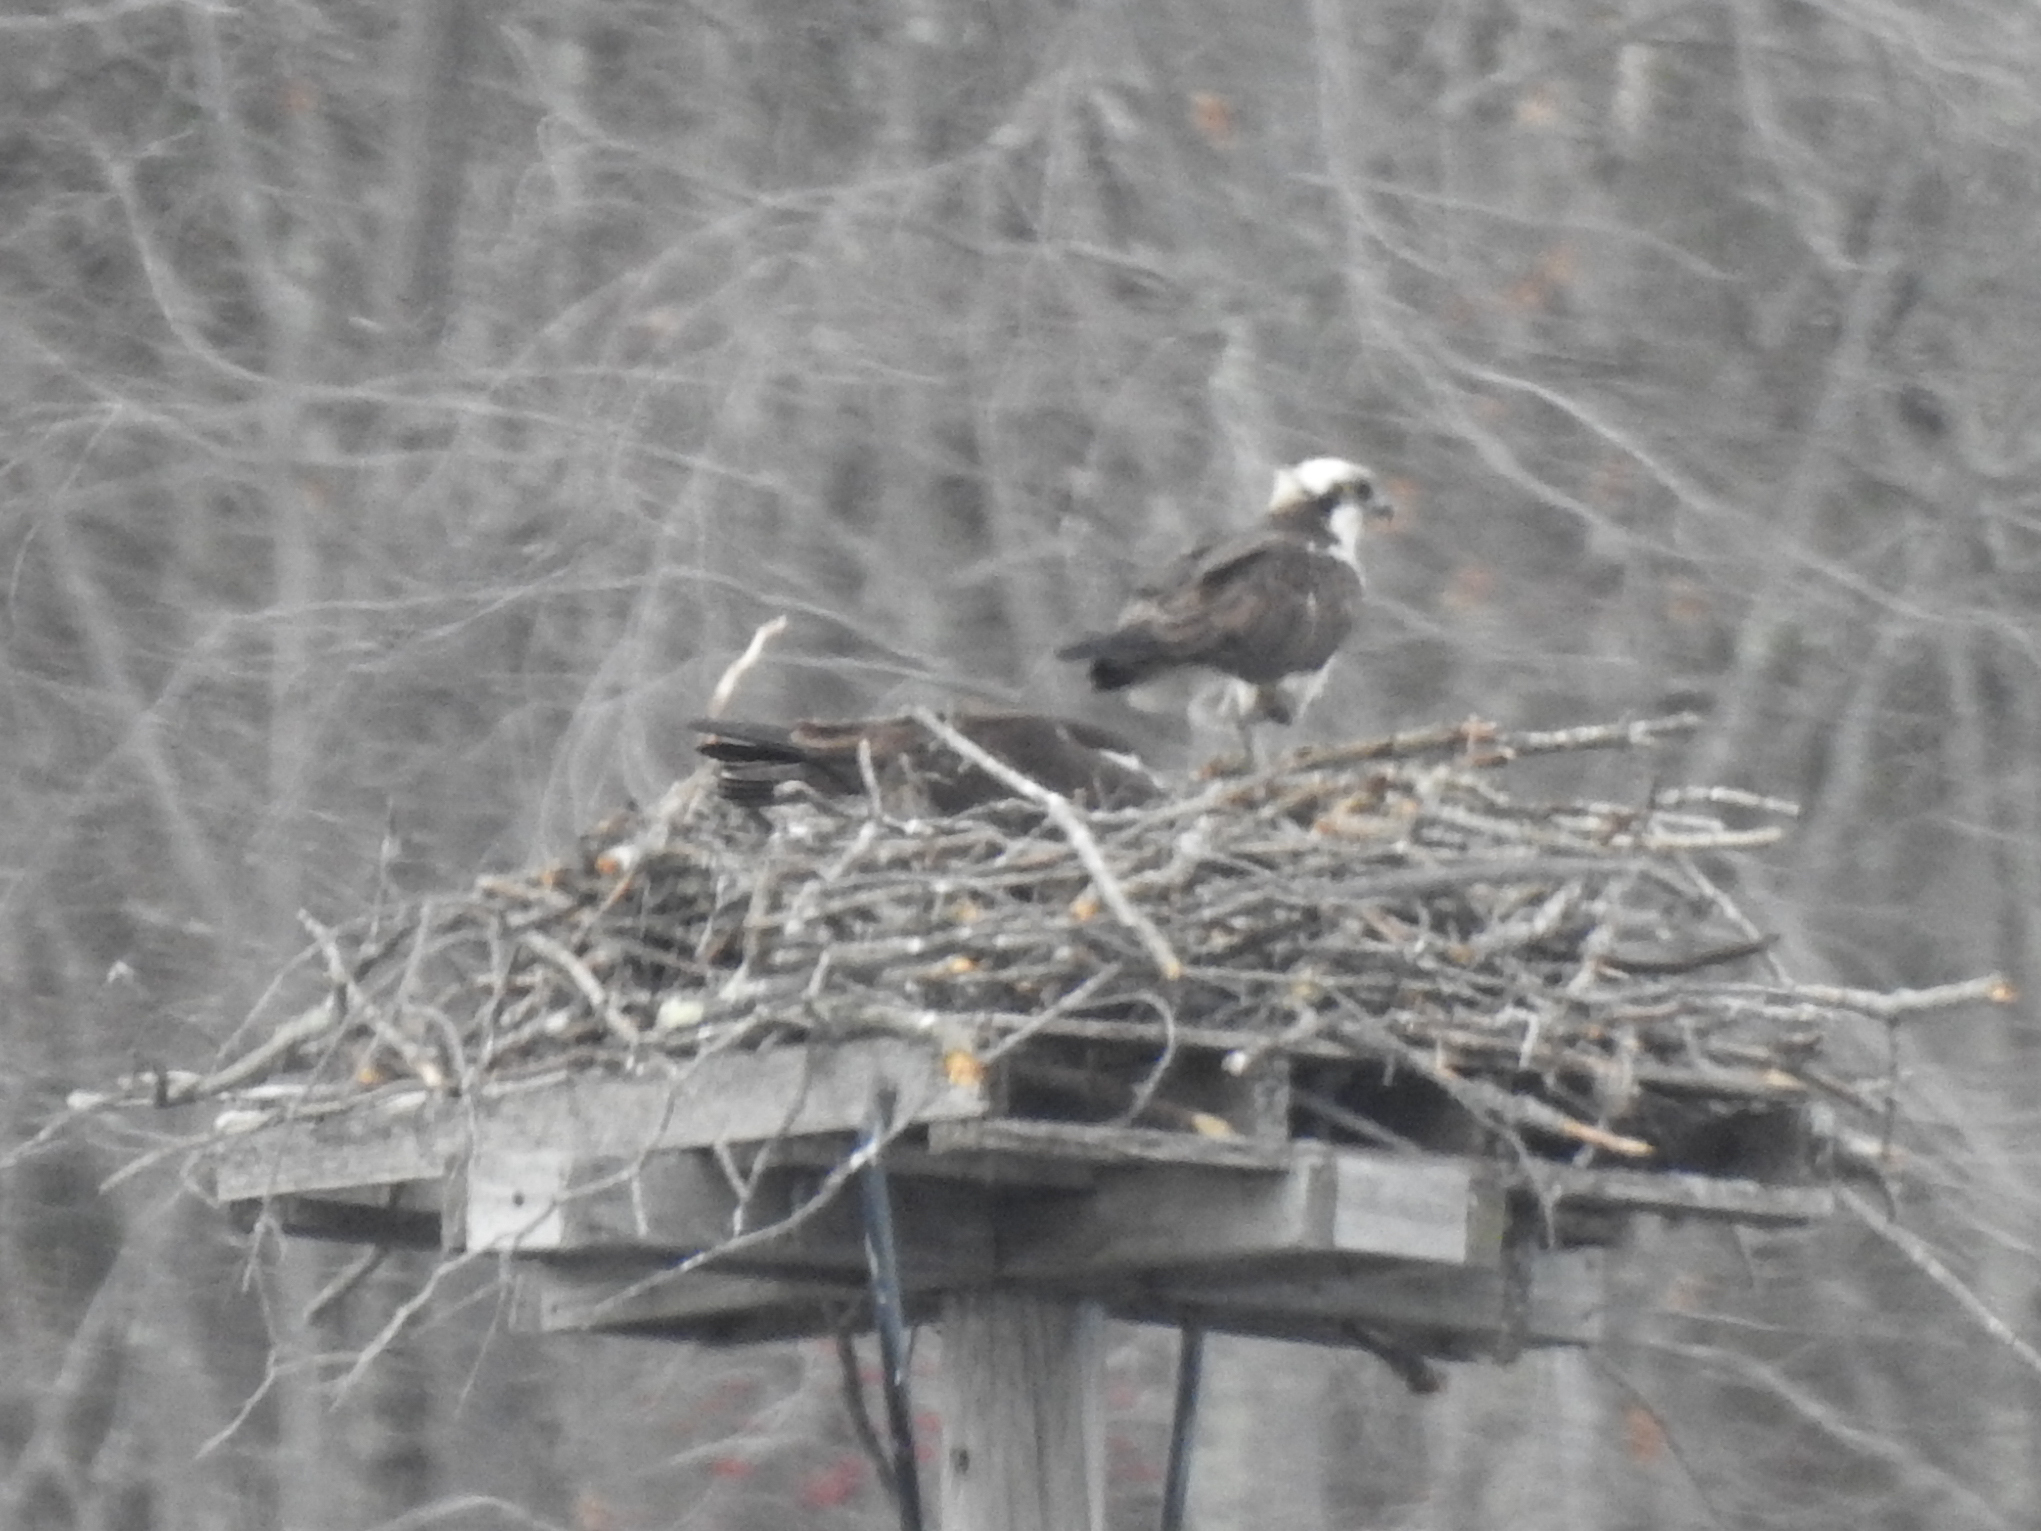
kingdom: Animalia
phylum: Chordata
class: Aves
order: Accipitriformes
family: Pandionidae
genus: Pandion
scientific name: Pandion haliaetus
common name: Osprey
